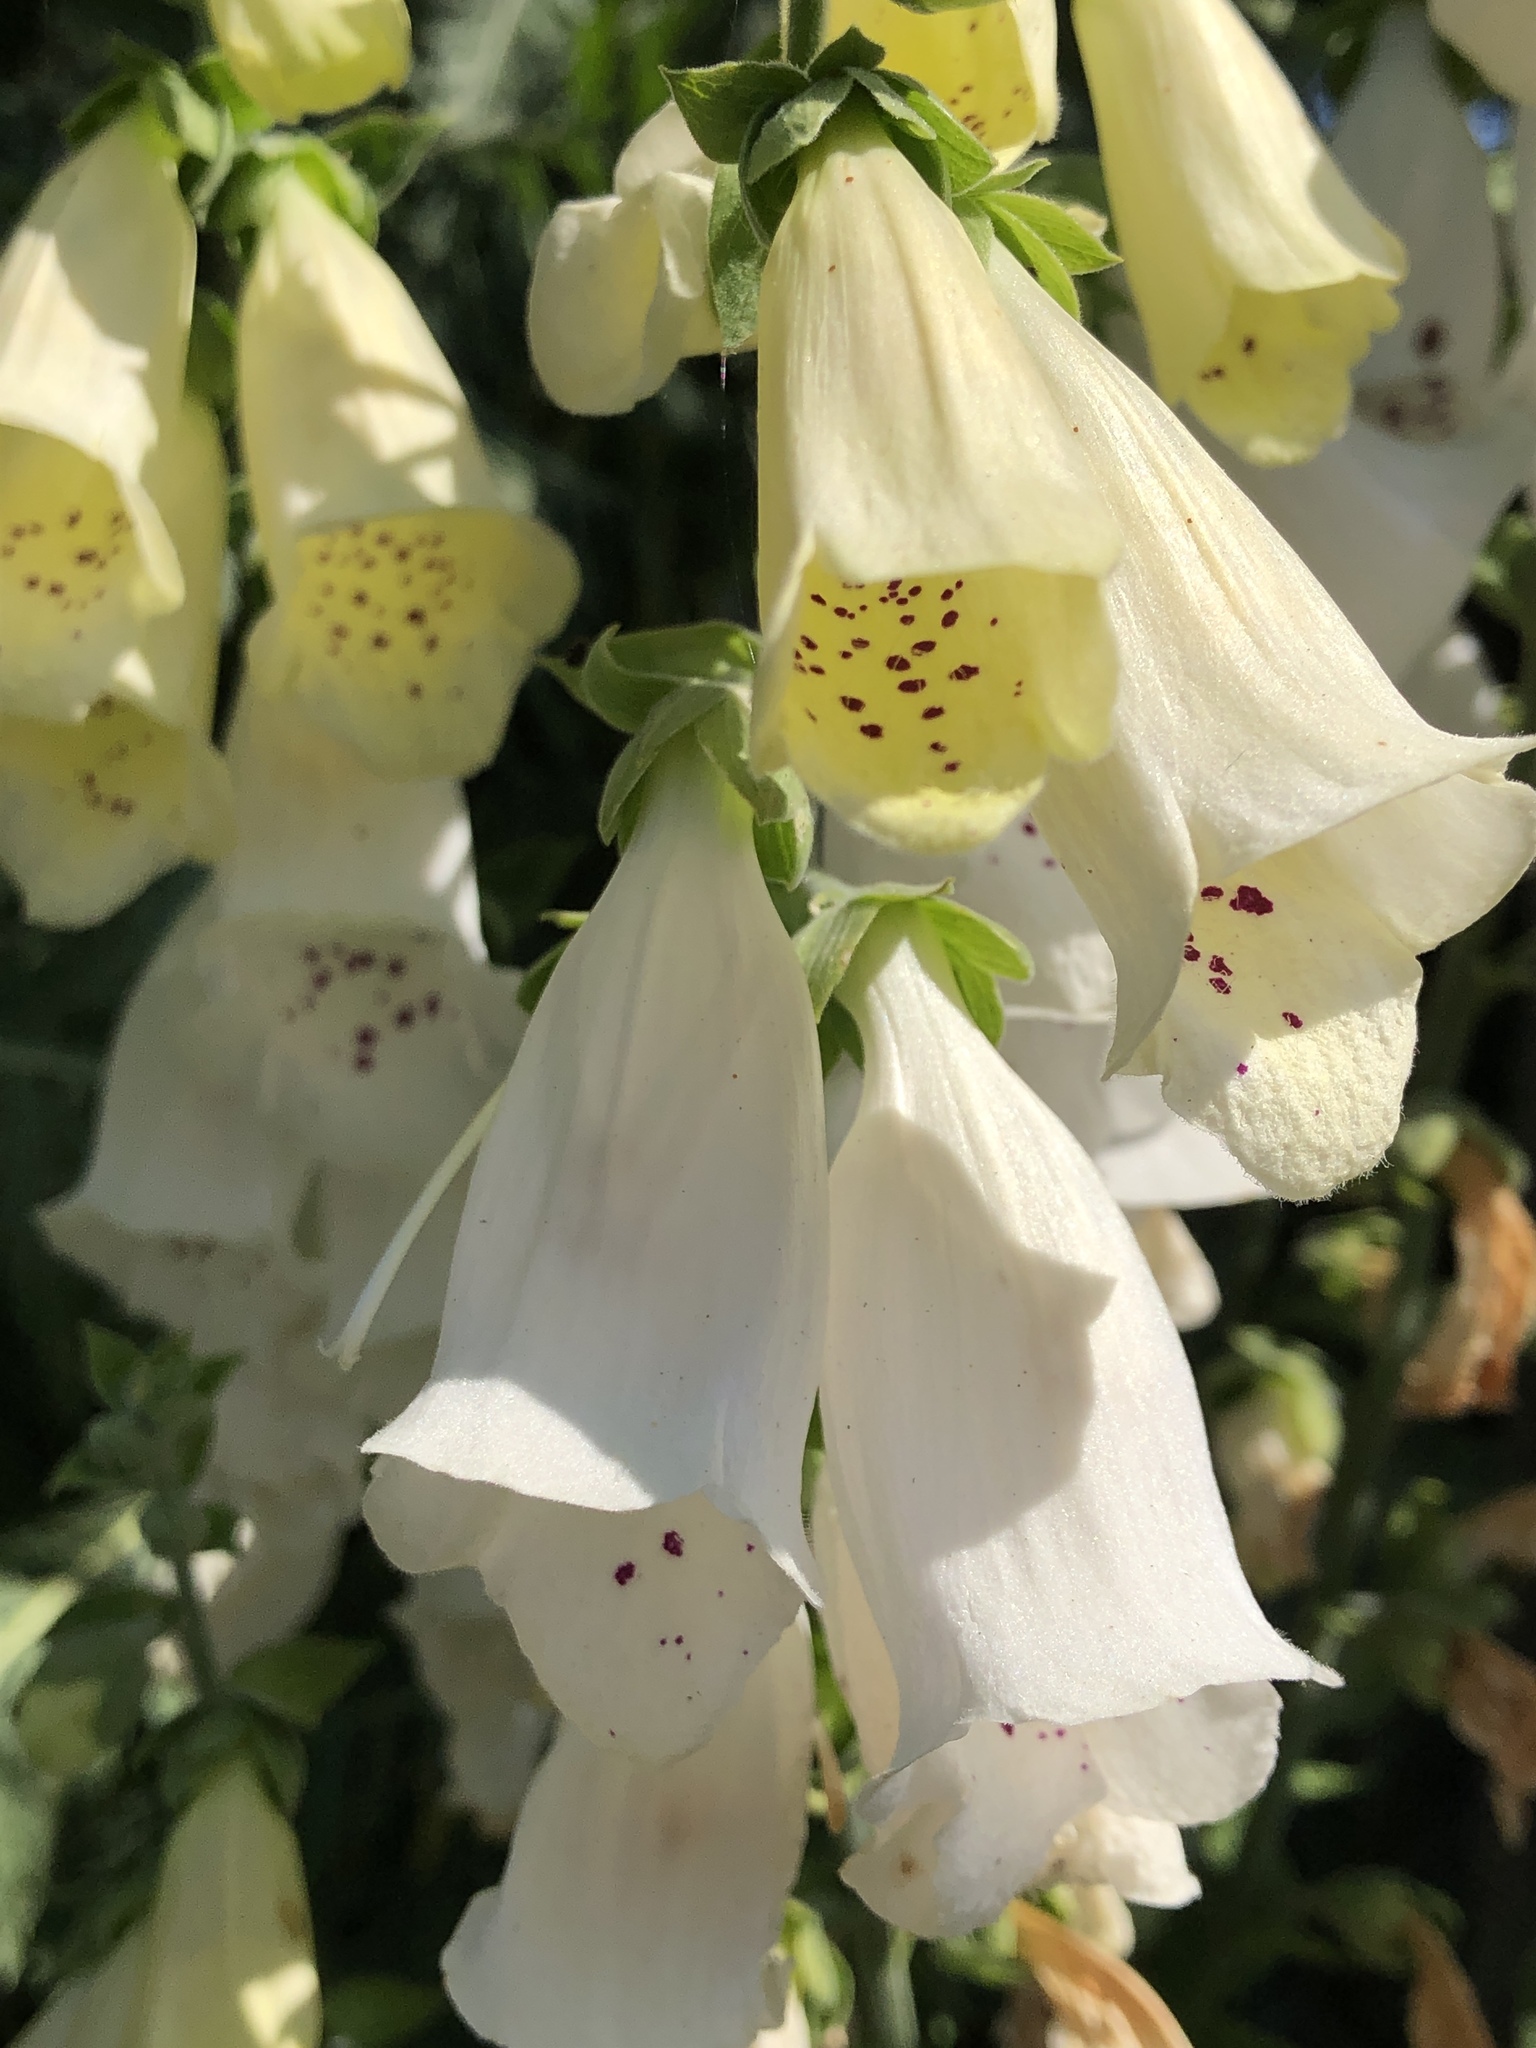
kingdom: Plantae
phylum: Tracheophyta
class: Magnoliopsida
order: Lamiales
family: Plantaginaceae
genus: Digitalis
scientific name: Digitalis purpurea
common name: Foxglove
